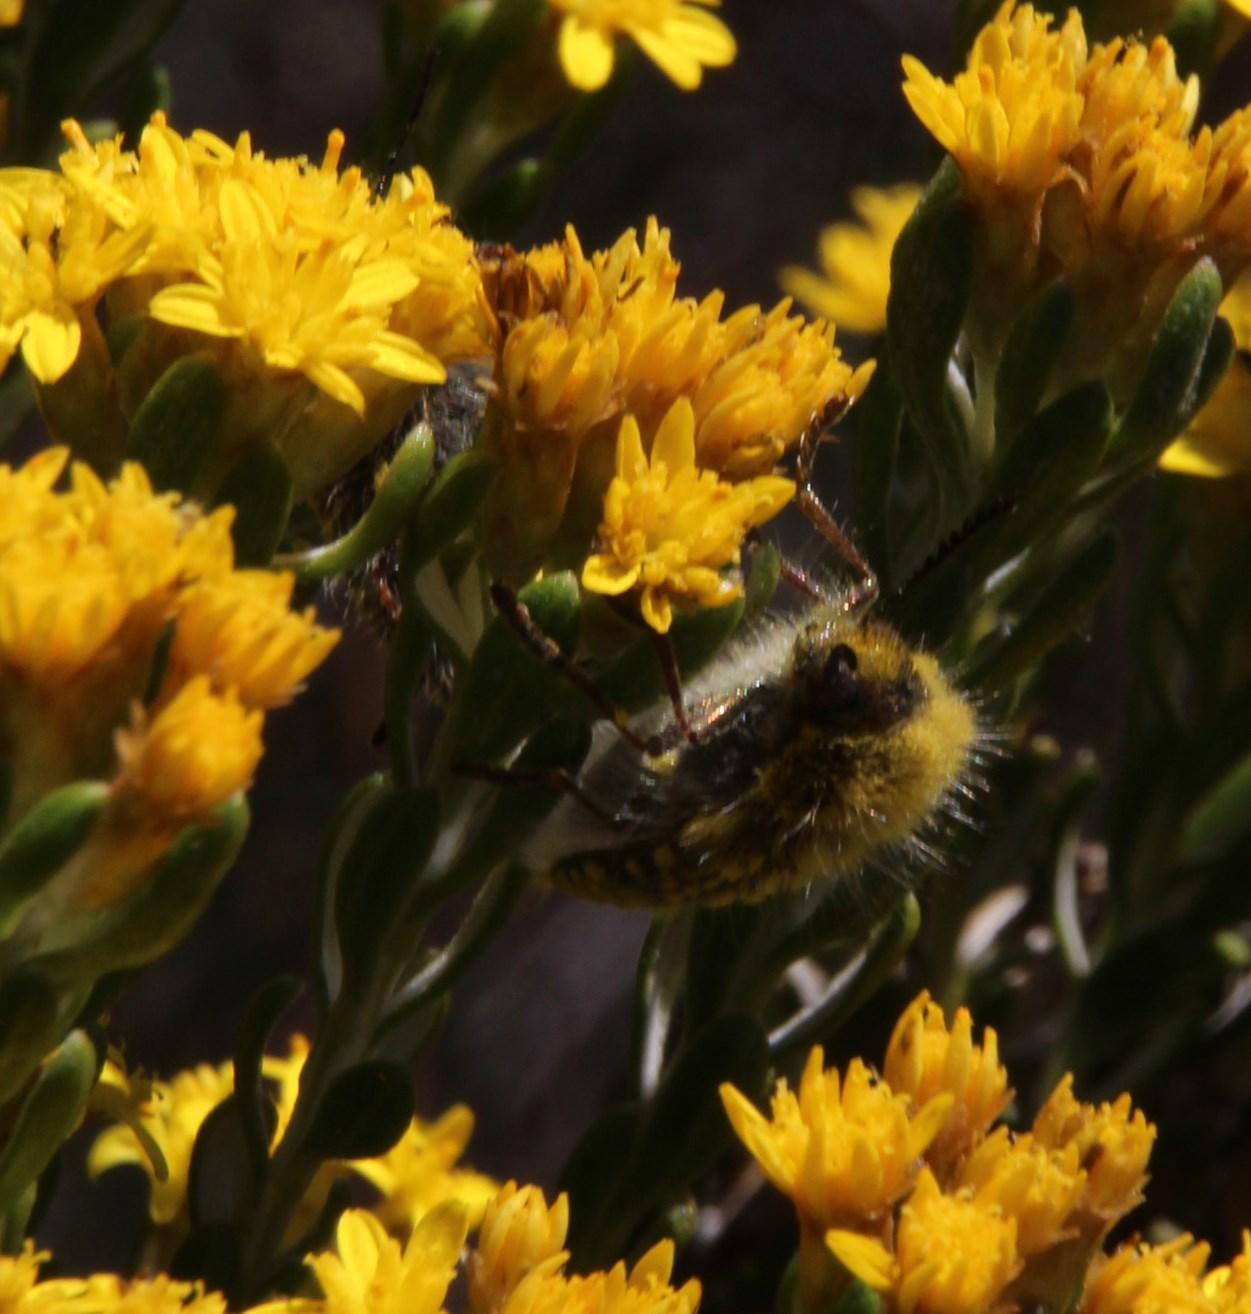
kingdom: Plantae
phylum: Tracheophyta
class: Magnoliopsida
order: Asterales
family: Asteraceae
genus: Oedera
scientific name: Oedera corymbosa
